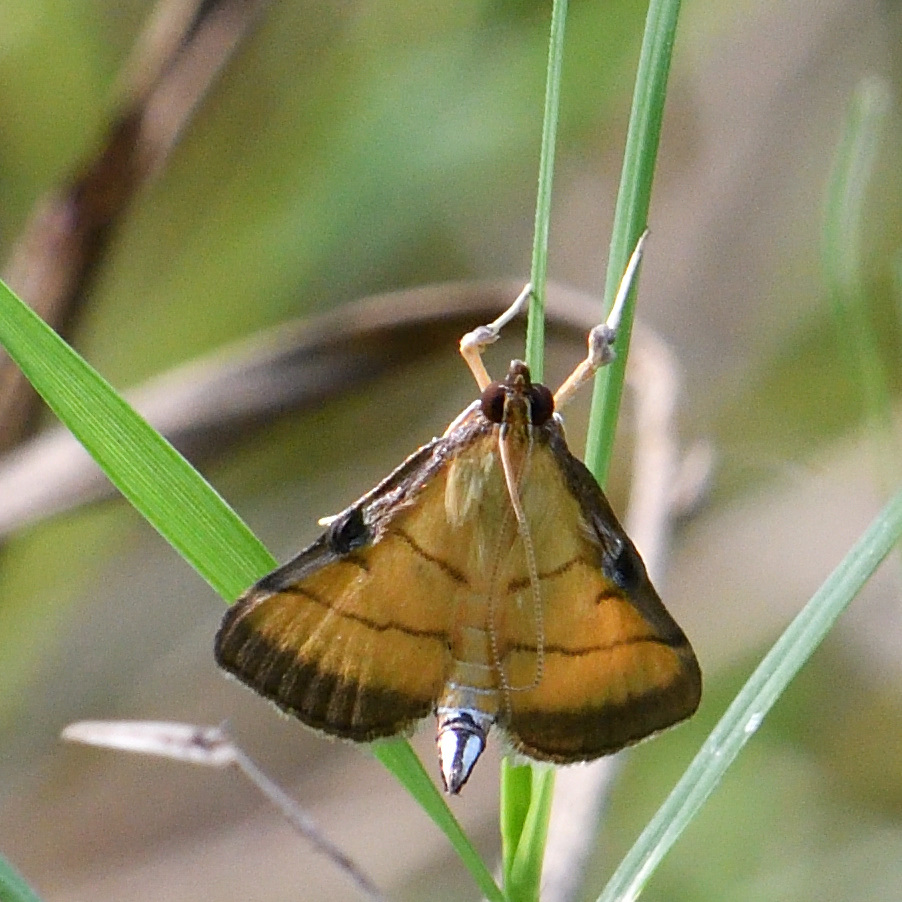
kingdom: Animalia
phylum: Arthropoda
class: Insecta
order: Lepidoptera
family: Crambidae
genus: Cnaphalocrocis
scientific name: Cnaphalocrocis medinalis
